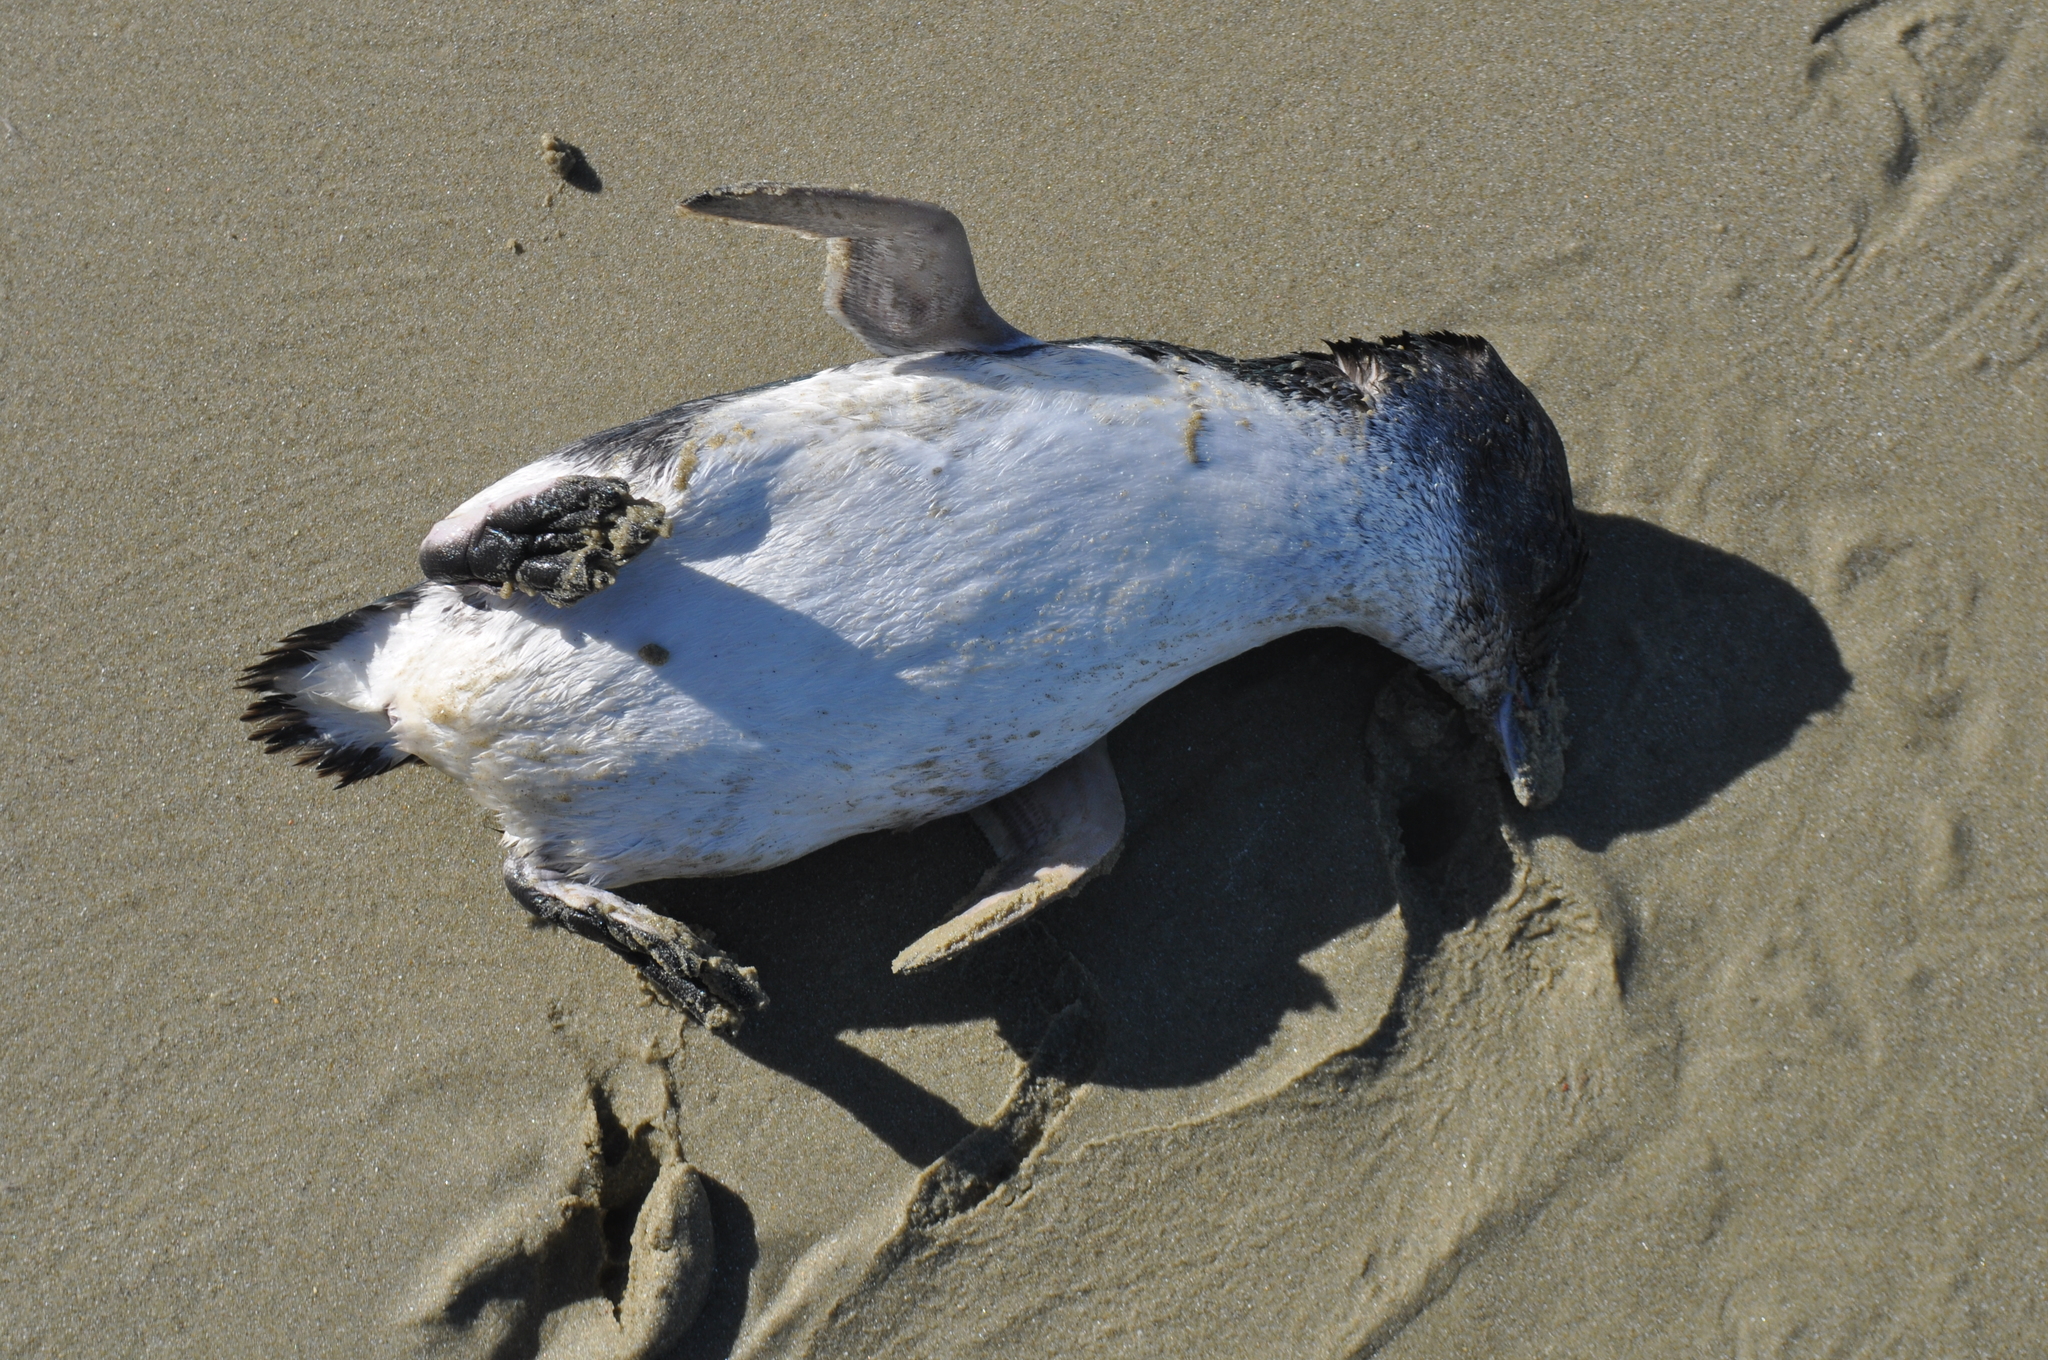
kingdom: Animalia
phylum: Chordata
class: Aves
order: Sphenisciformes
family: Spheniscidae
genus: Eudyptula
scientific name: Eudyptula minor
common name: Little penguin
